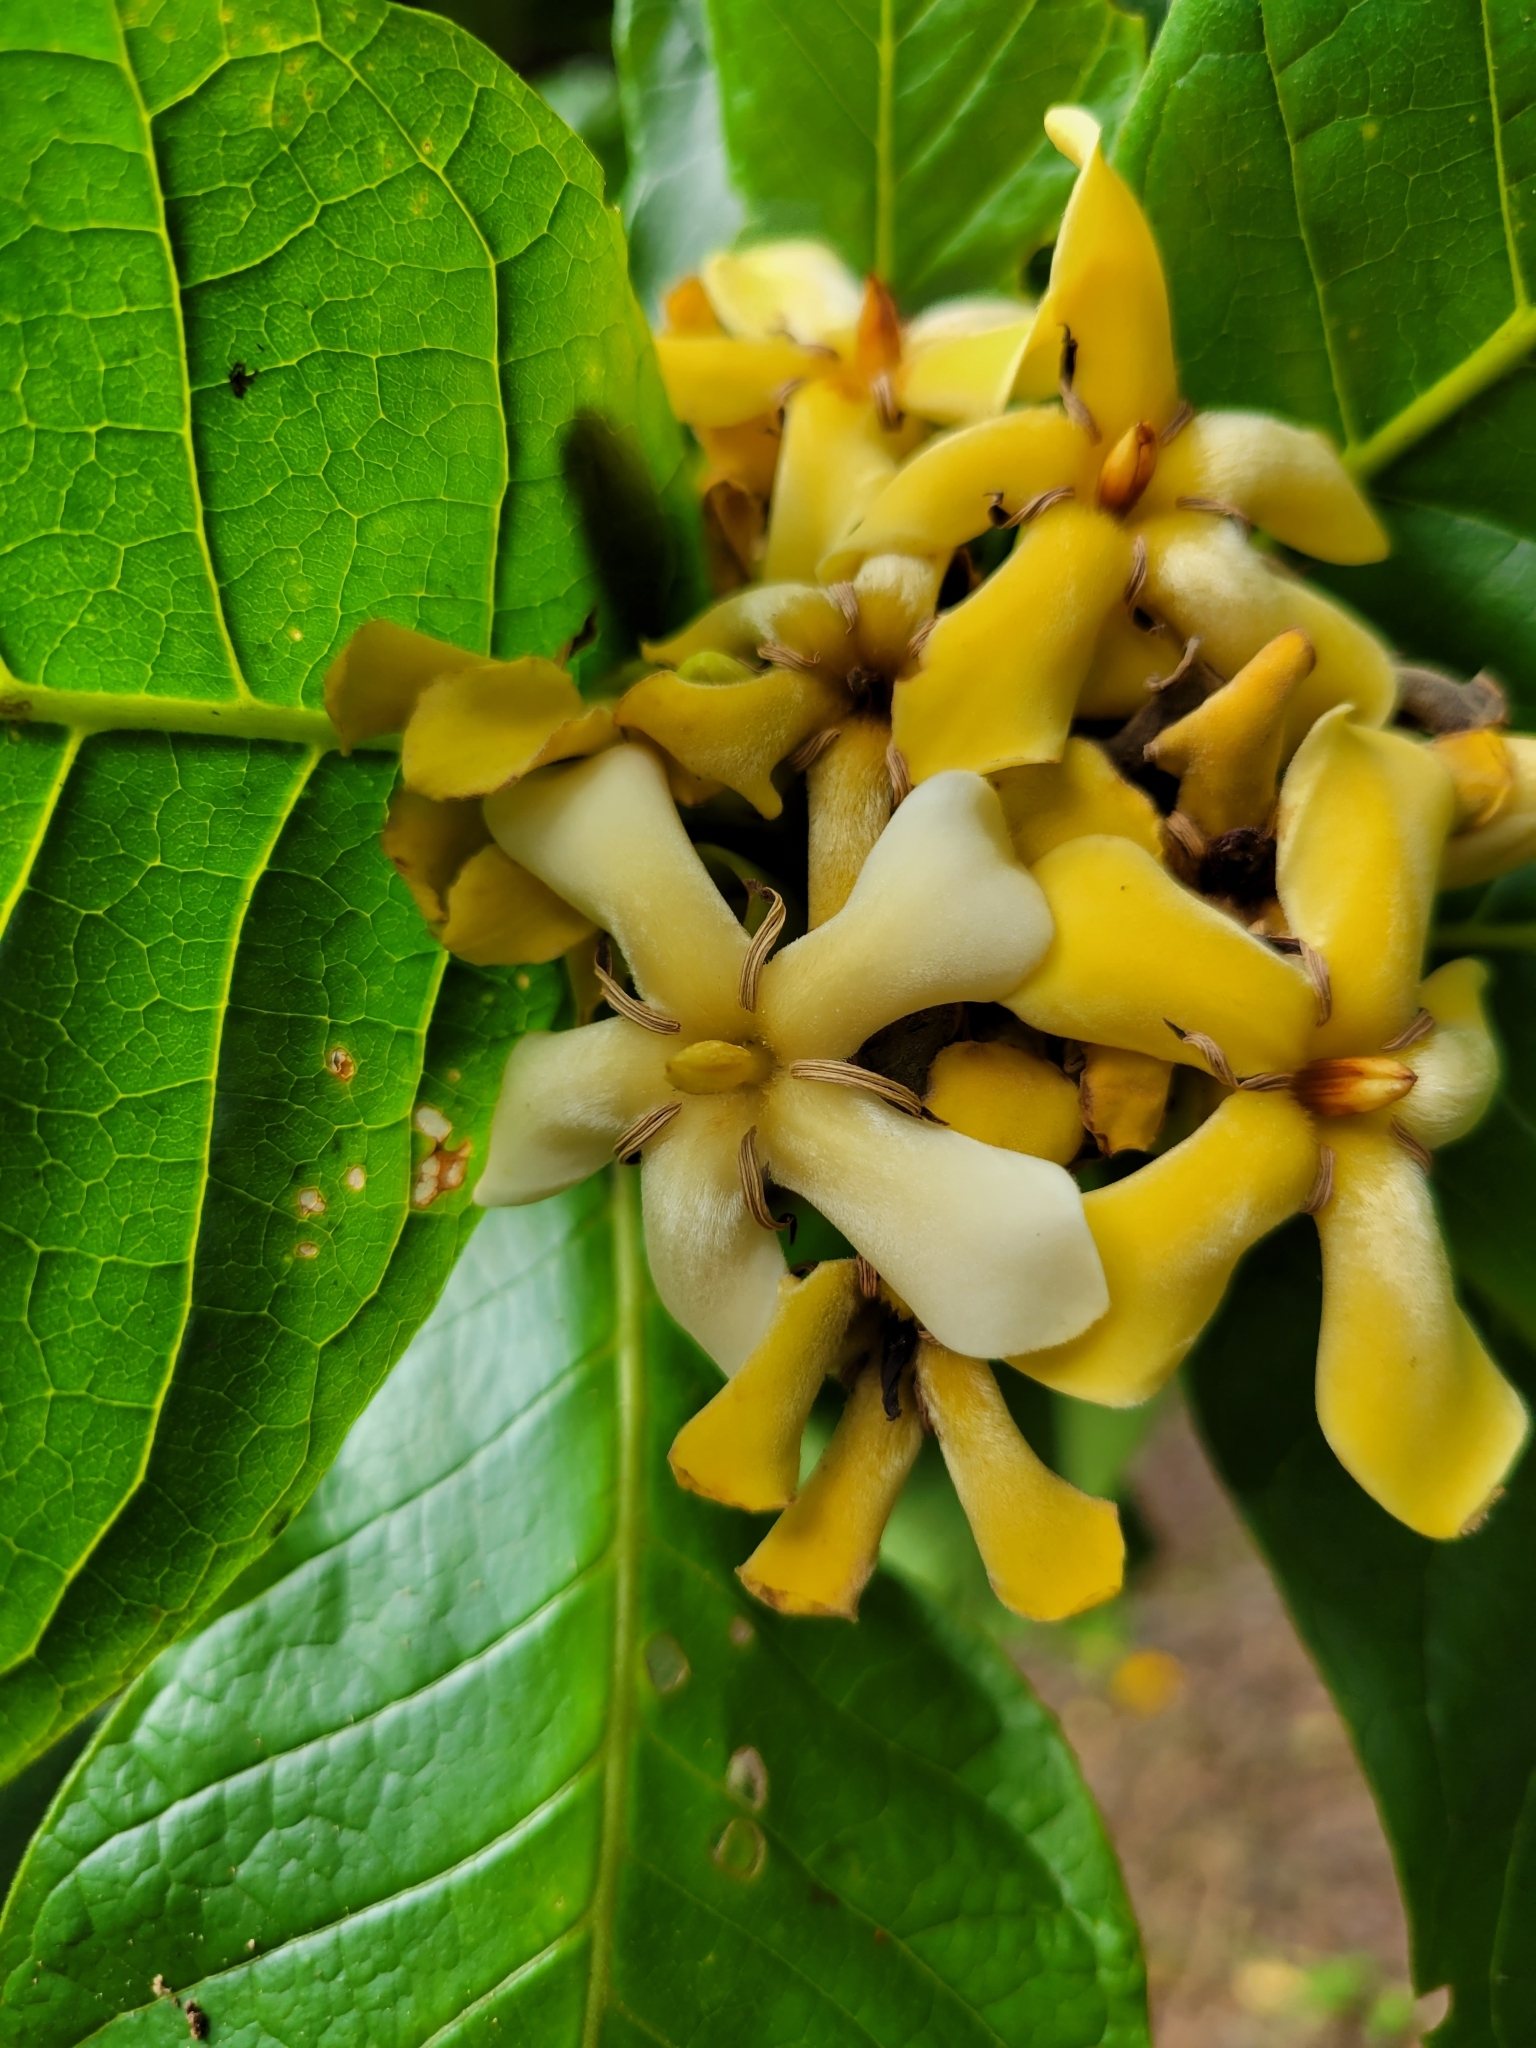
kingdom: Plantae
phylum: Tracheophyta
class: Magnoliopsida
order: Gentianales
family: Rubiaceae
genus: Genipa
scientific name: Genipa americana
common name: Genipap
